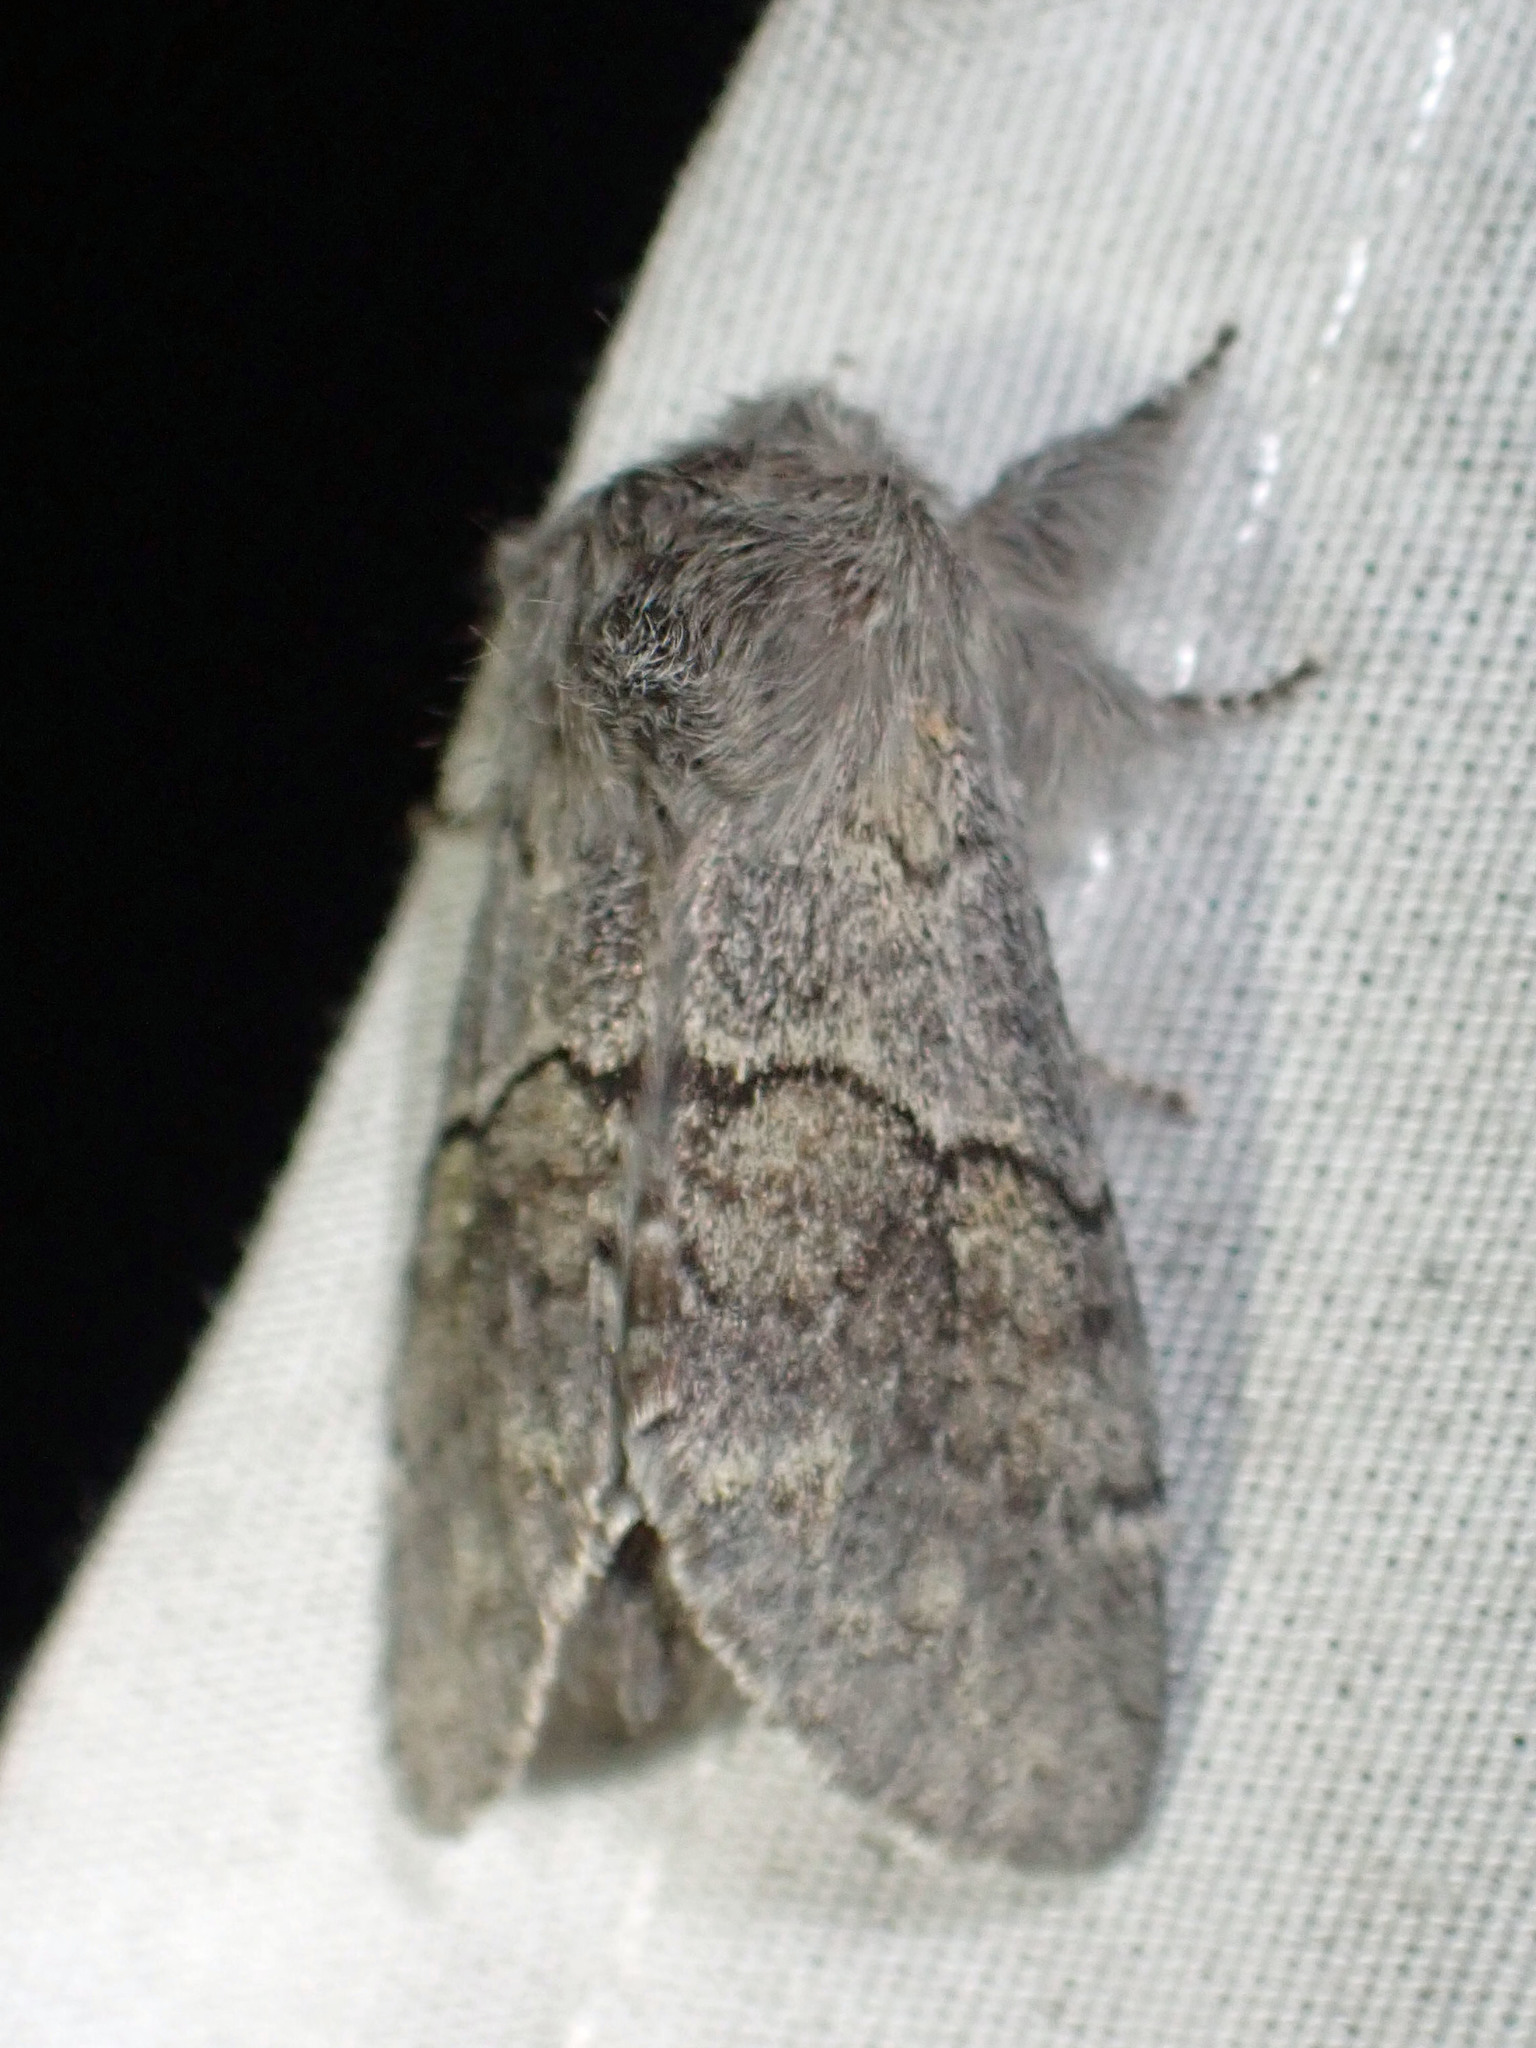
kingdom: Animalia
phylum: Arthropoda
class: Insecta
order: Lepidoptera
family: Notodontidae
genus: Gluphisia
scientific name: Gluphisia lintneri
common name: Lintner's gluphisia moth
